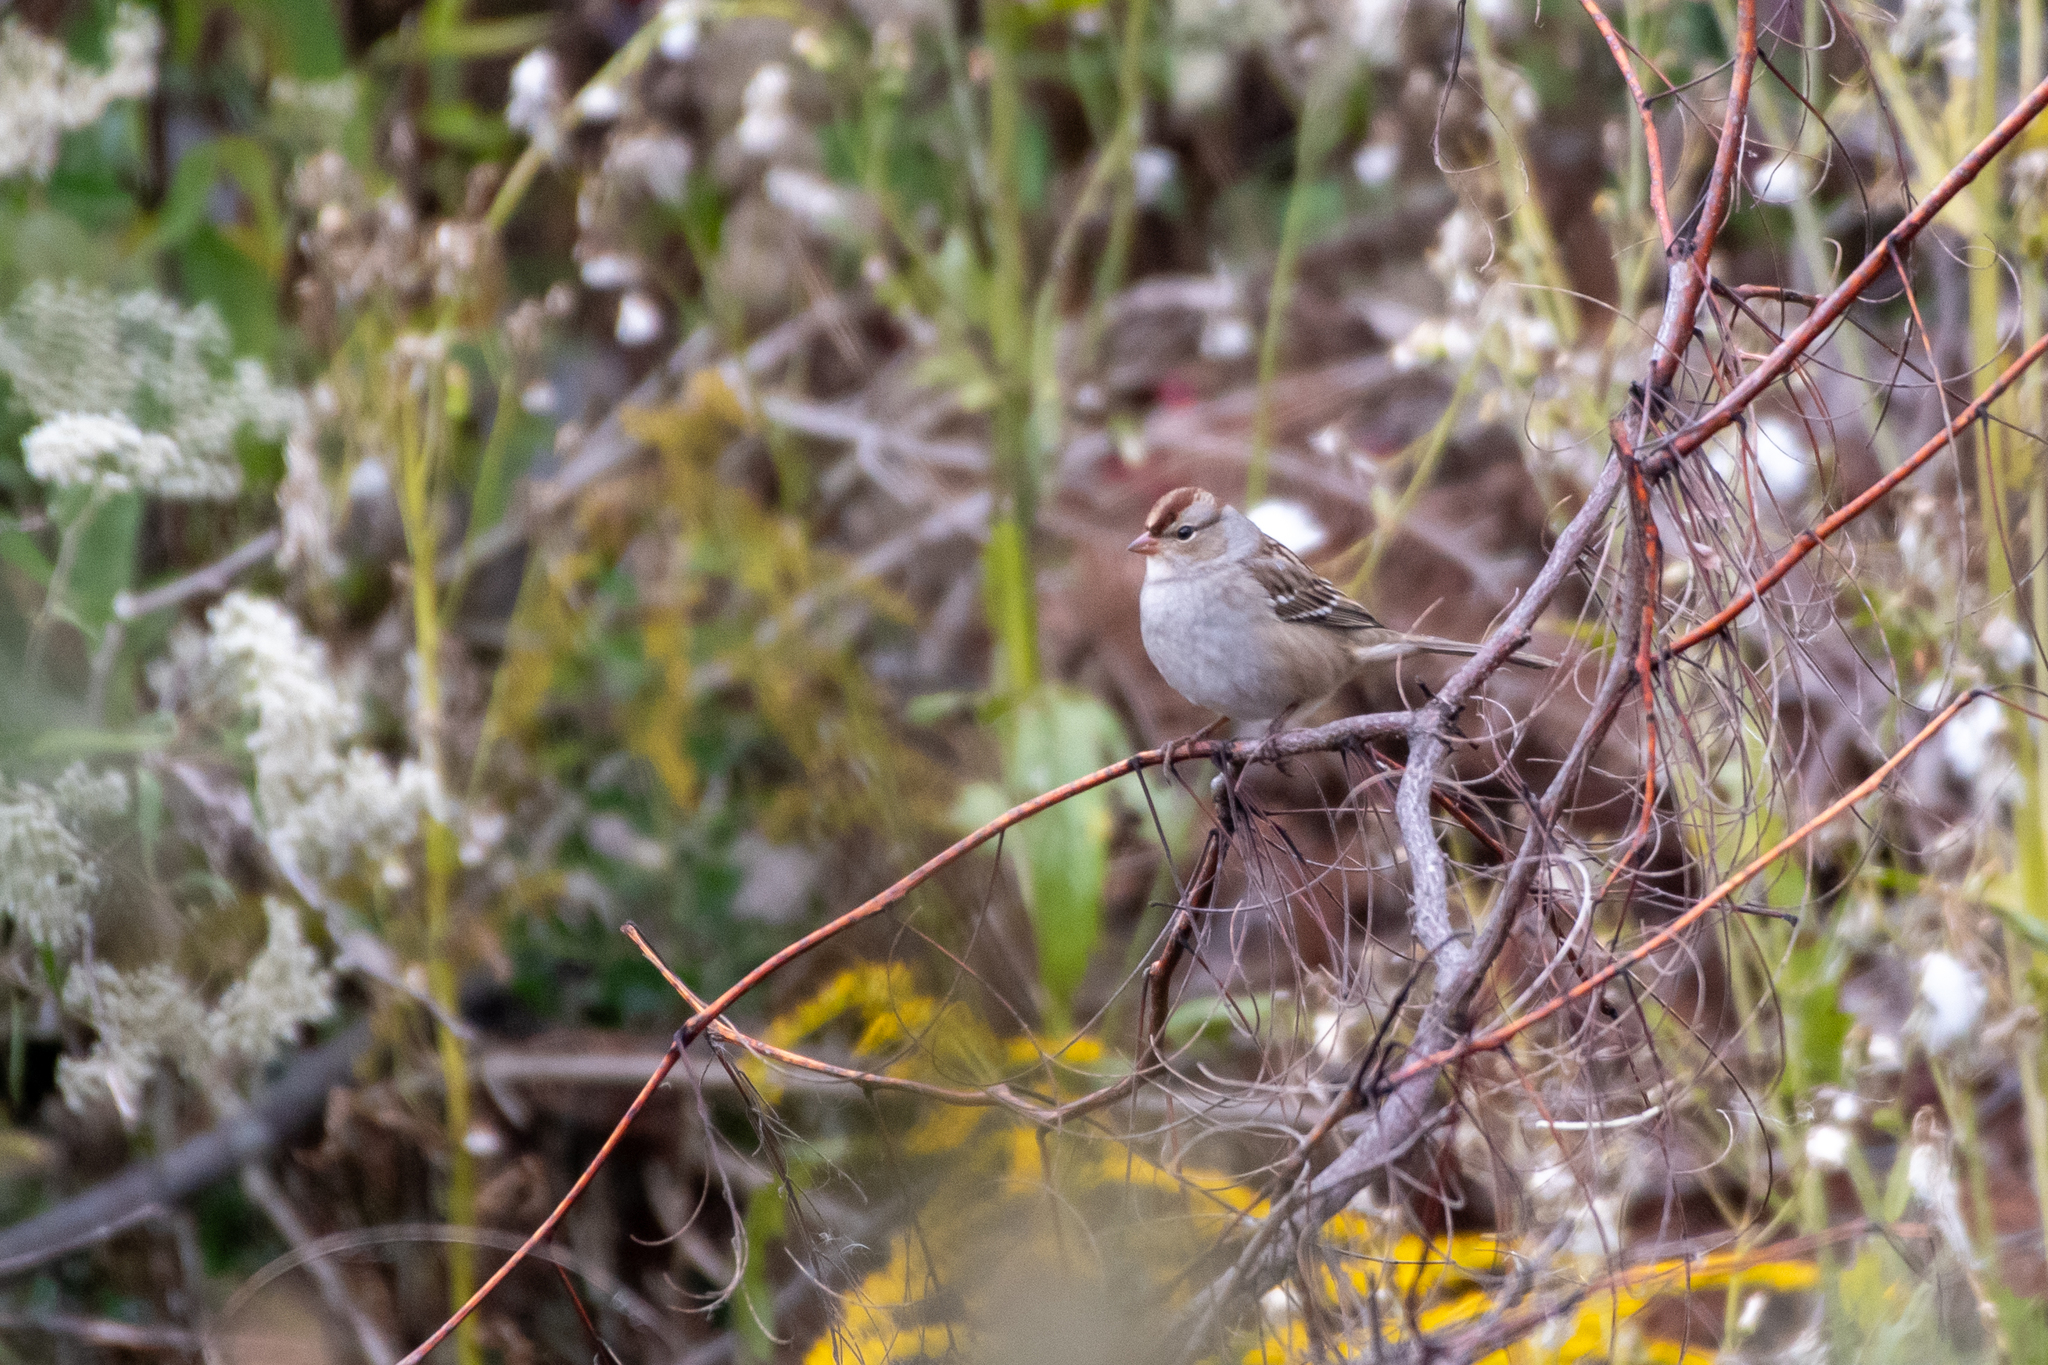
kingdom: Animalia
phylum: Chordata
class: Aves
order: Passeriformes
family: Passerellidae
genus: Zonotrichia
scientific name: Zonotrichia leucophrys
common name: White-crowned sparrow
